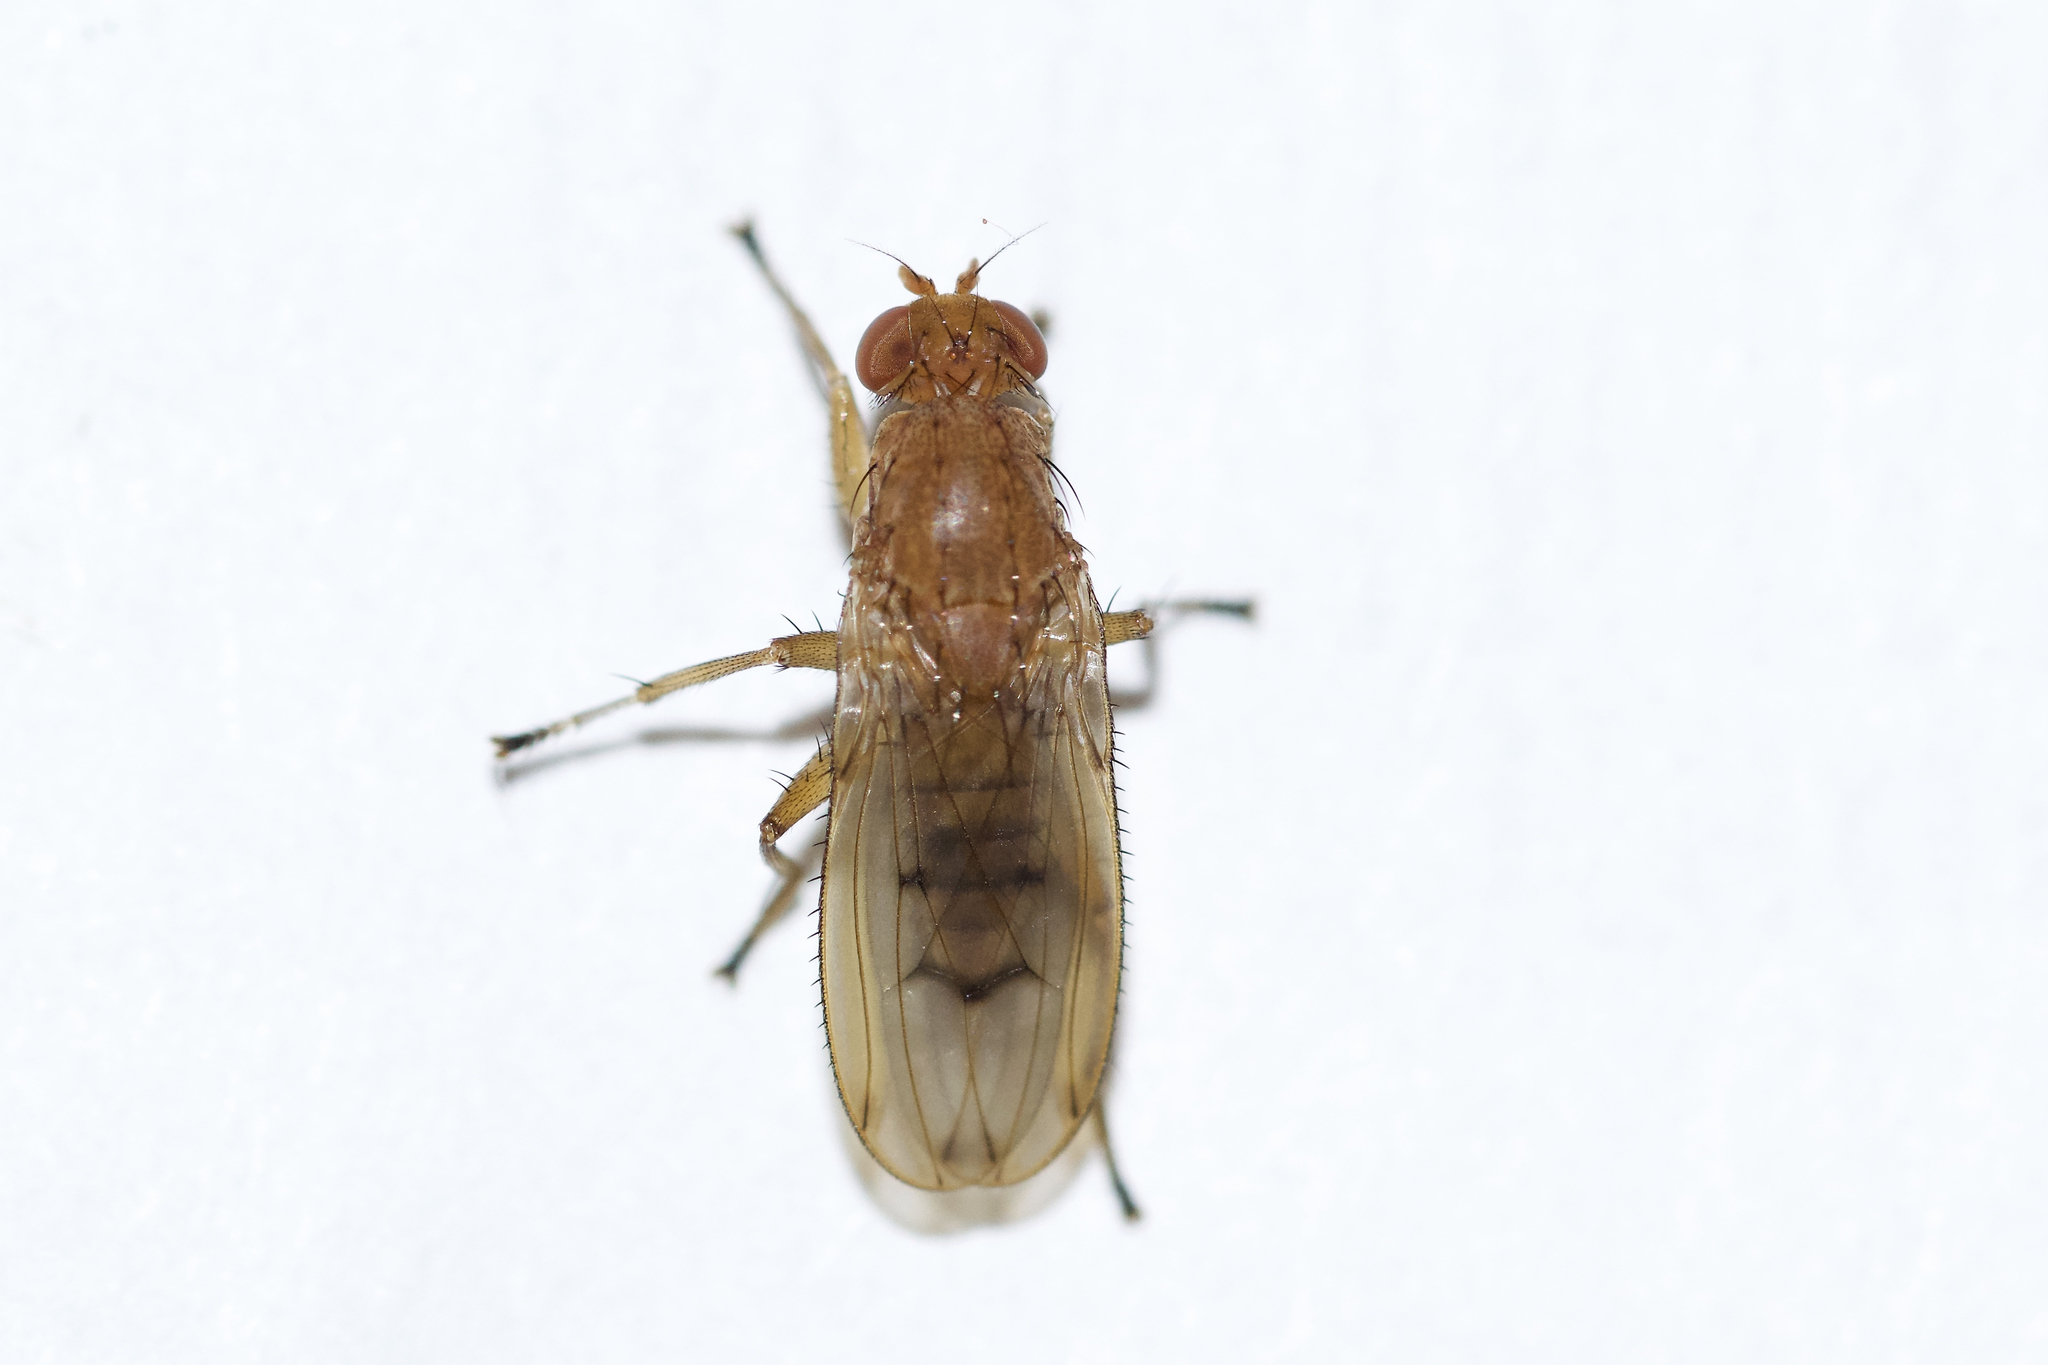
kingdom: Animalia
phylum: Arthropoda
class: Insecta
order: Diptera
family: Heleomyzidae
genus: Suillia
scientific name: Suillia quinquepunctata
